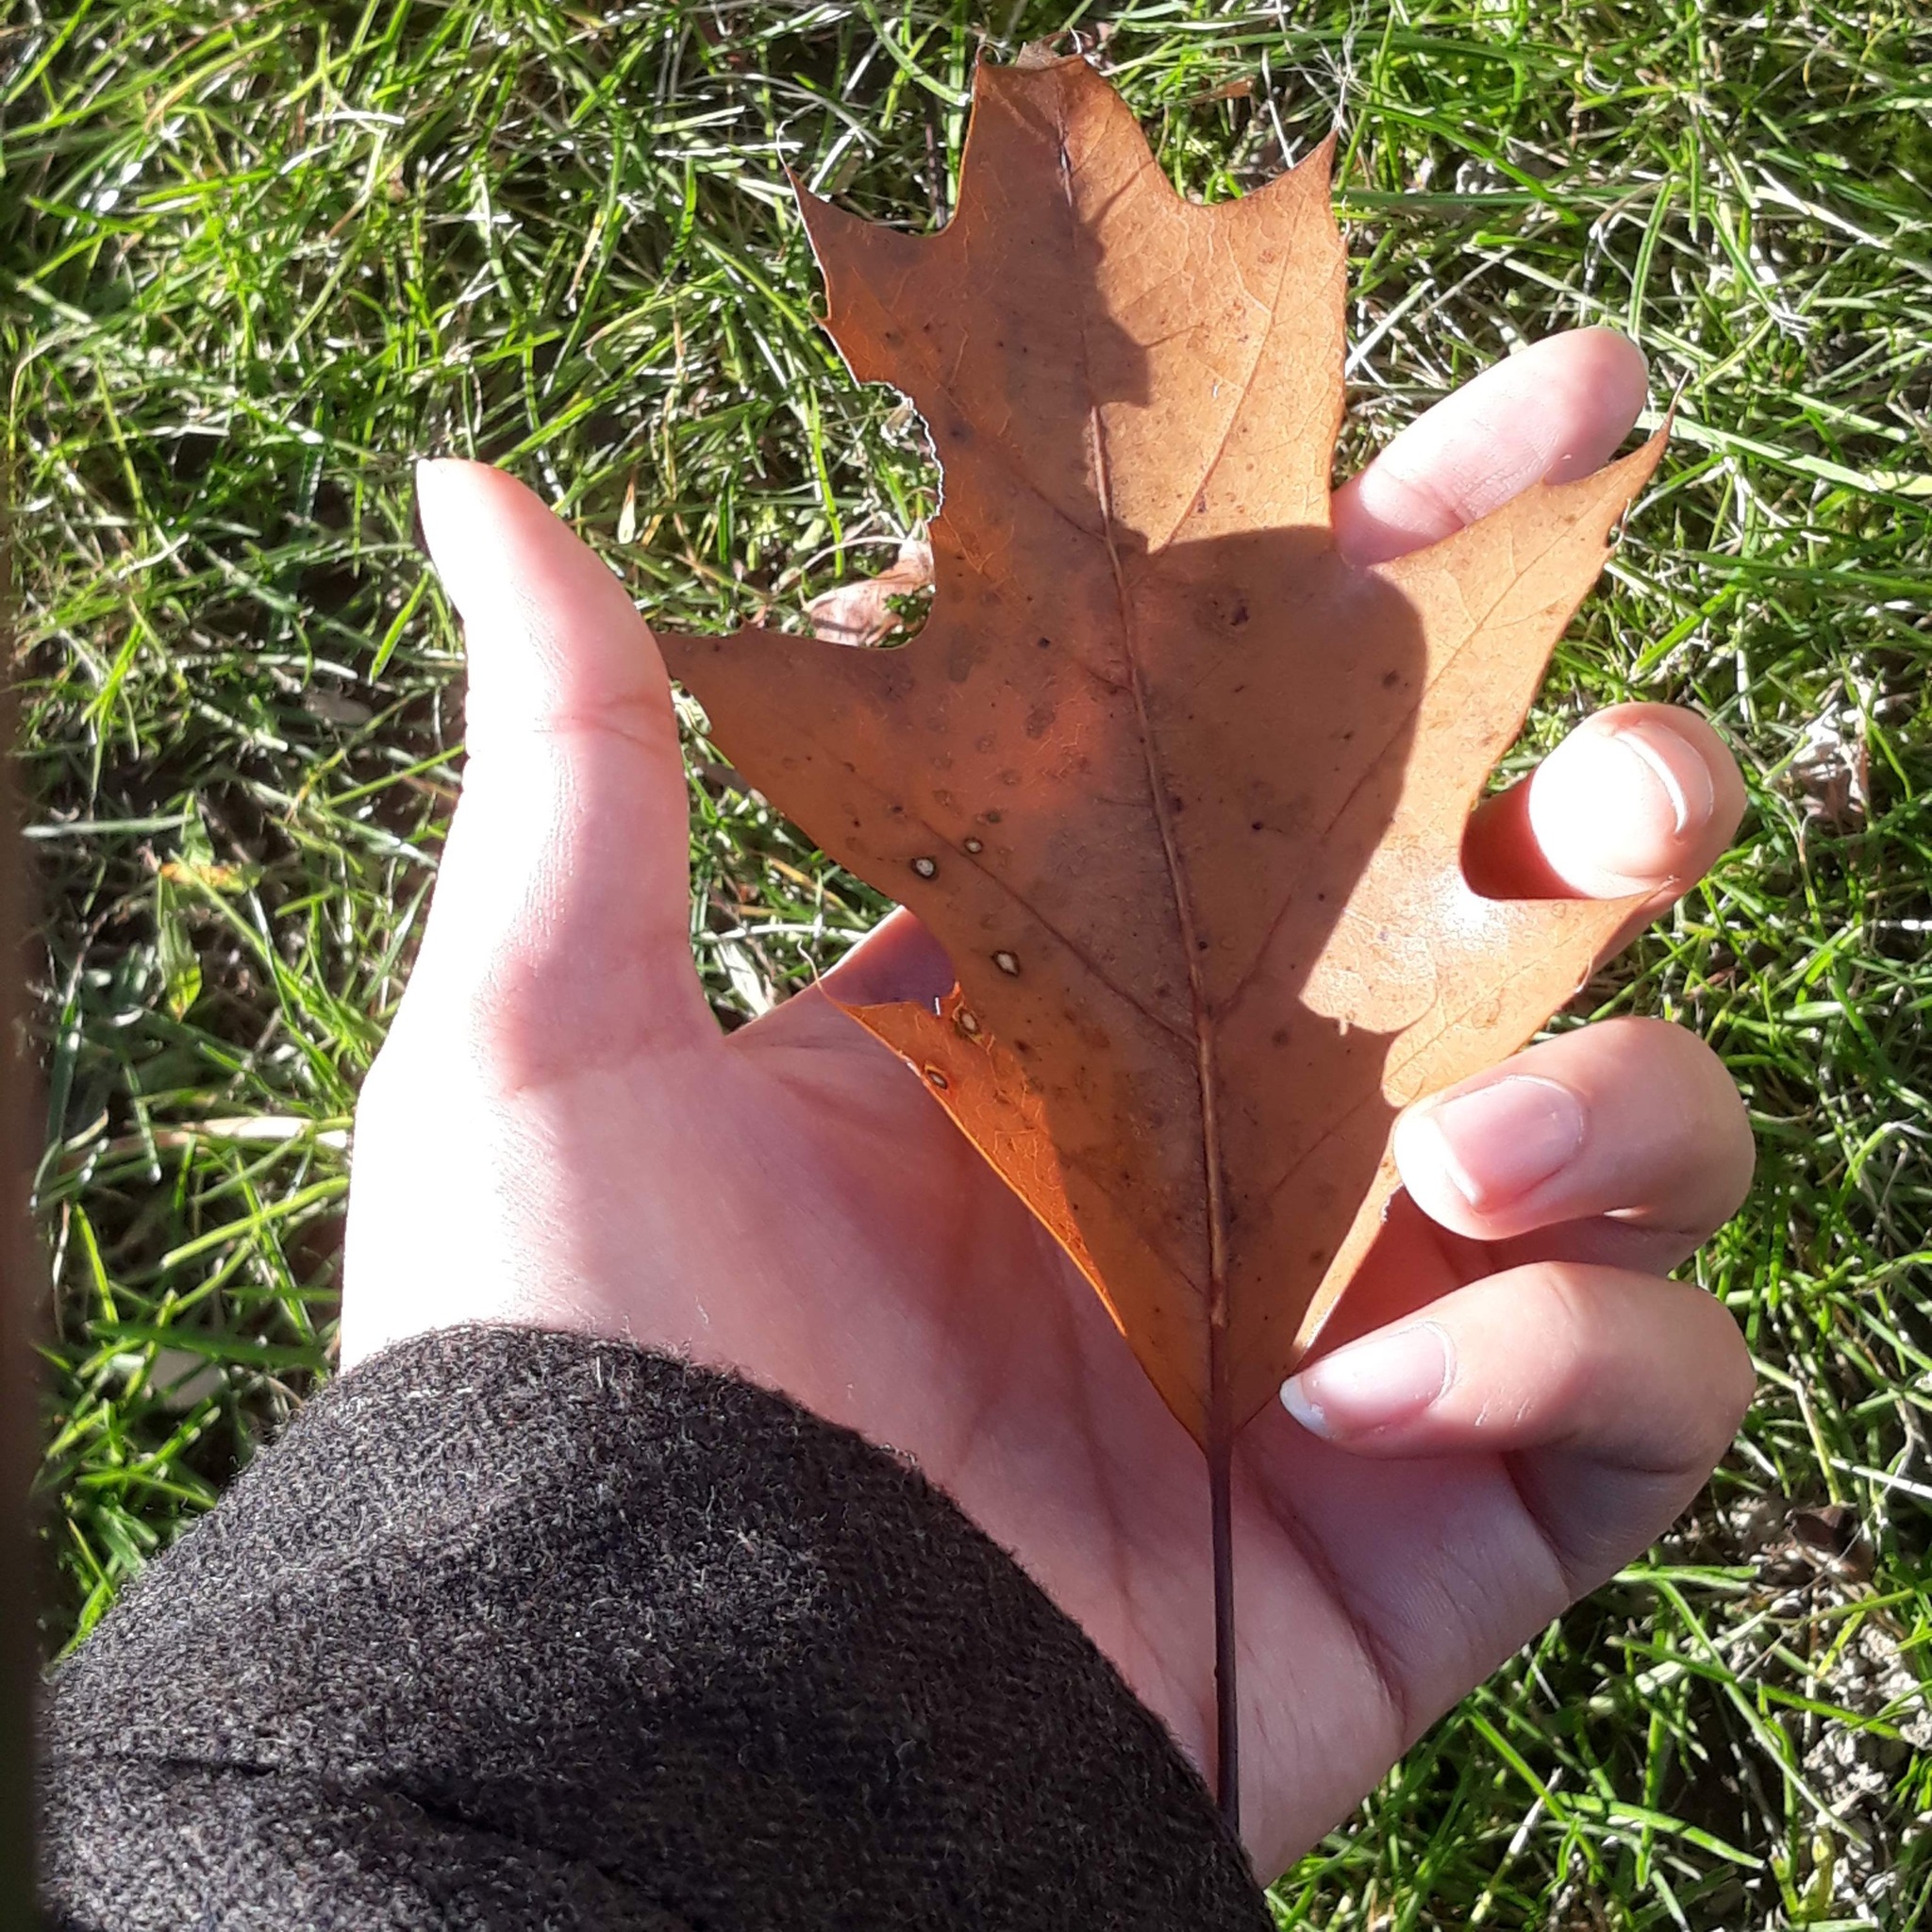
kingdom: Animalia
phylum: Arthropoda
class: Insecta
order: Hymenoptera
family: Cynipidae
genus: Callirhytis
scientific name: Callirhytis
